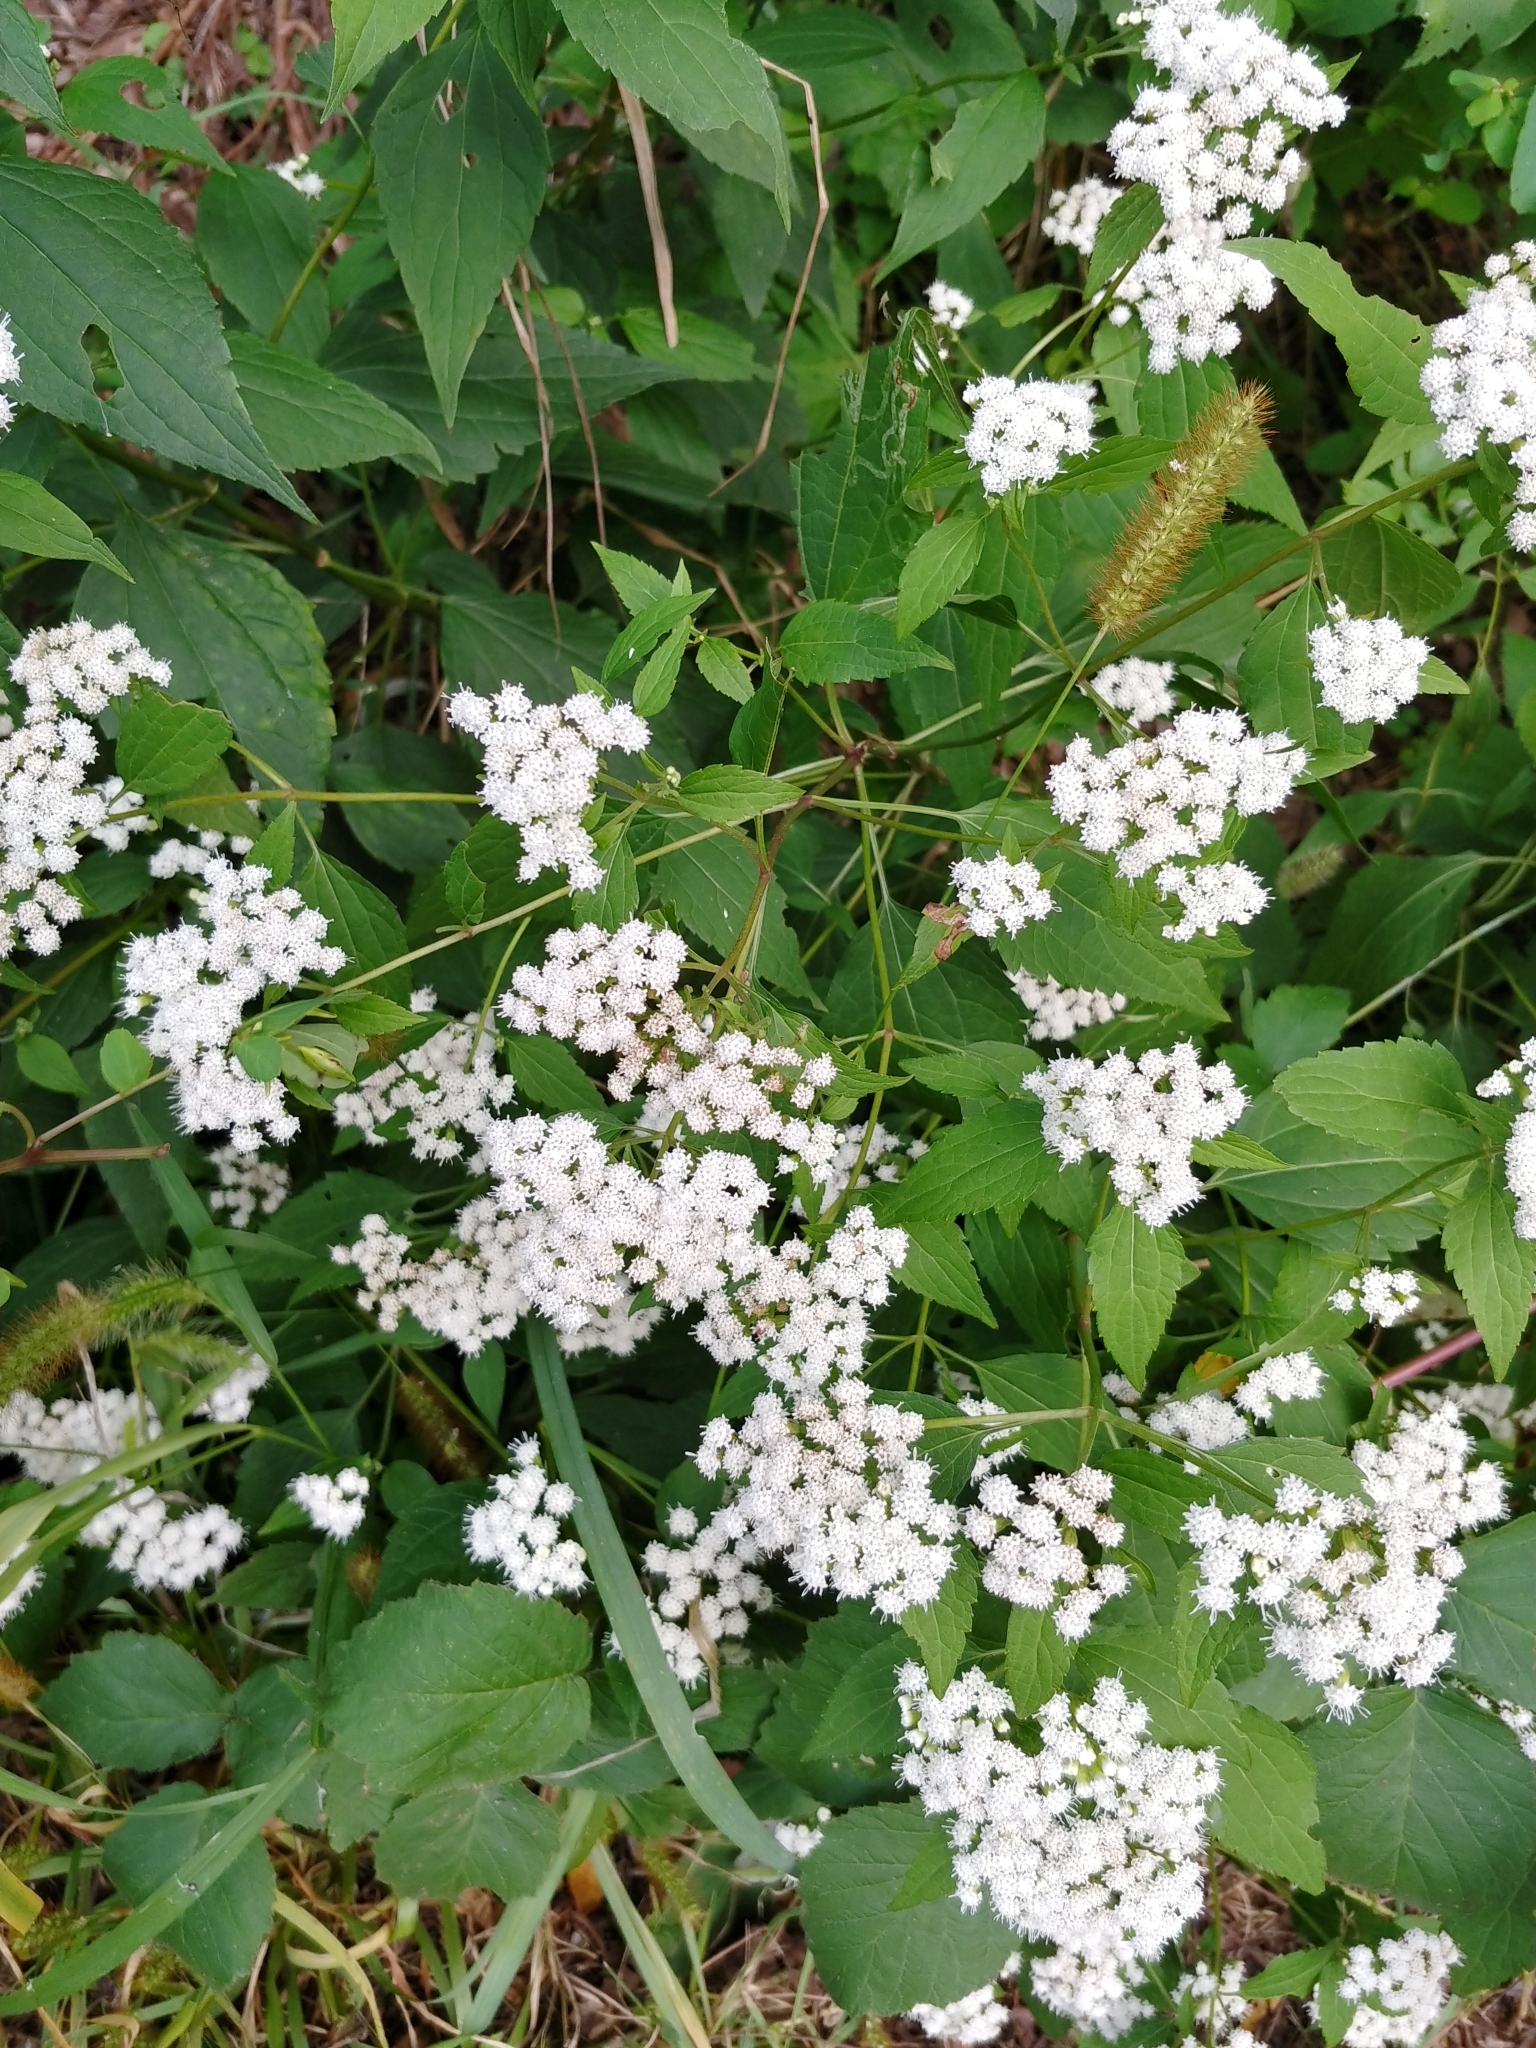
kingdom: Plantae
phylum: Tracheophyta
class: Magnoliopsida
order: Asterales
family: Asteraceae
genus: Ageratina
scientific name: Ageratina altissima
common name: White snakeroot
